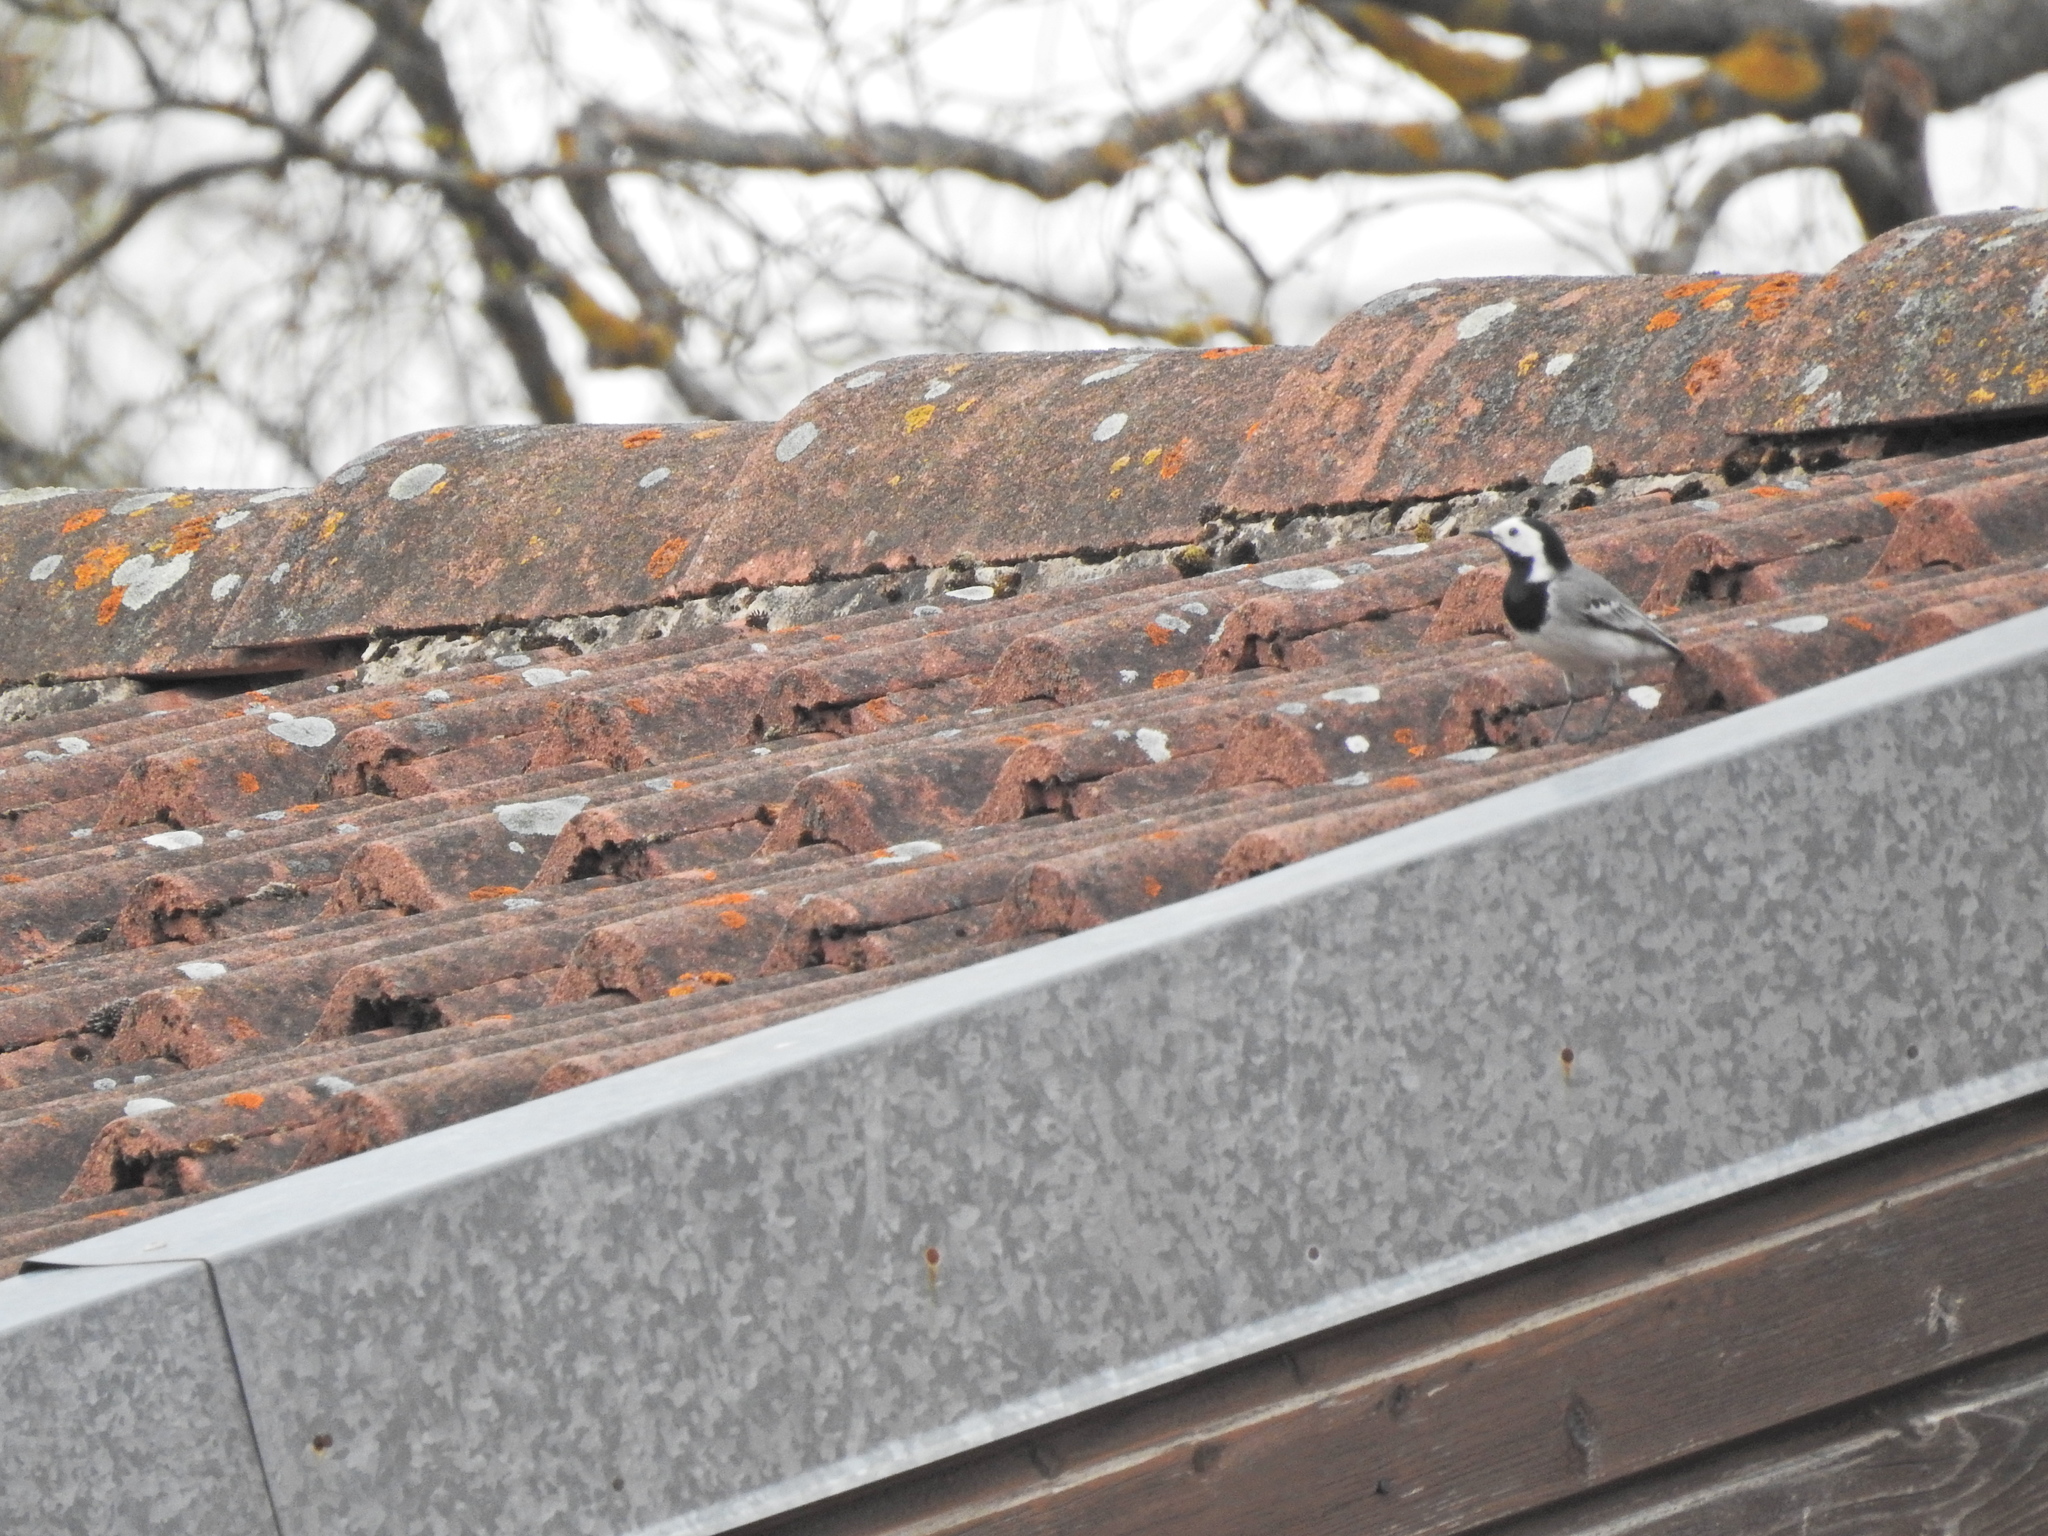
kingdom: Animalia
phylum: Chordata
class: Aves
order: Passeriformes
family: Motacillidae
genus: Motacilla
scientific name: Motacilla alba
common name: White wagtail
